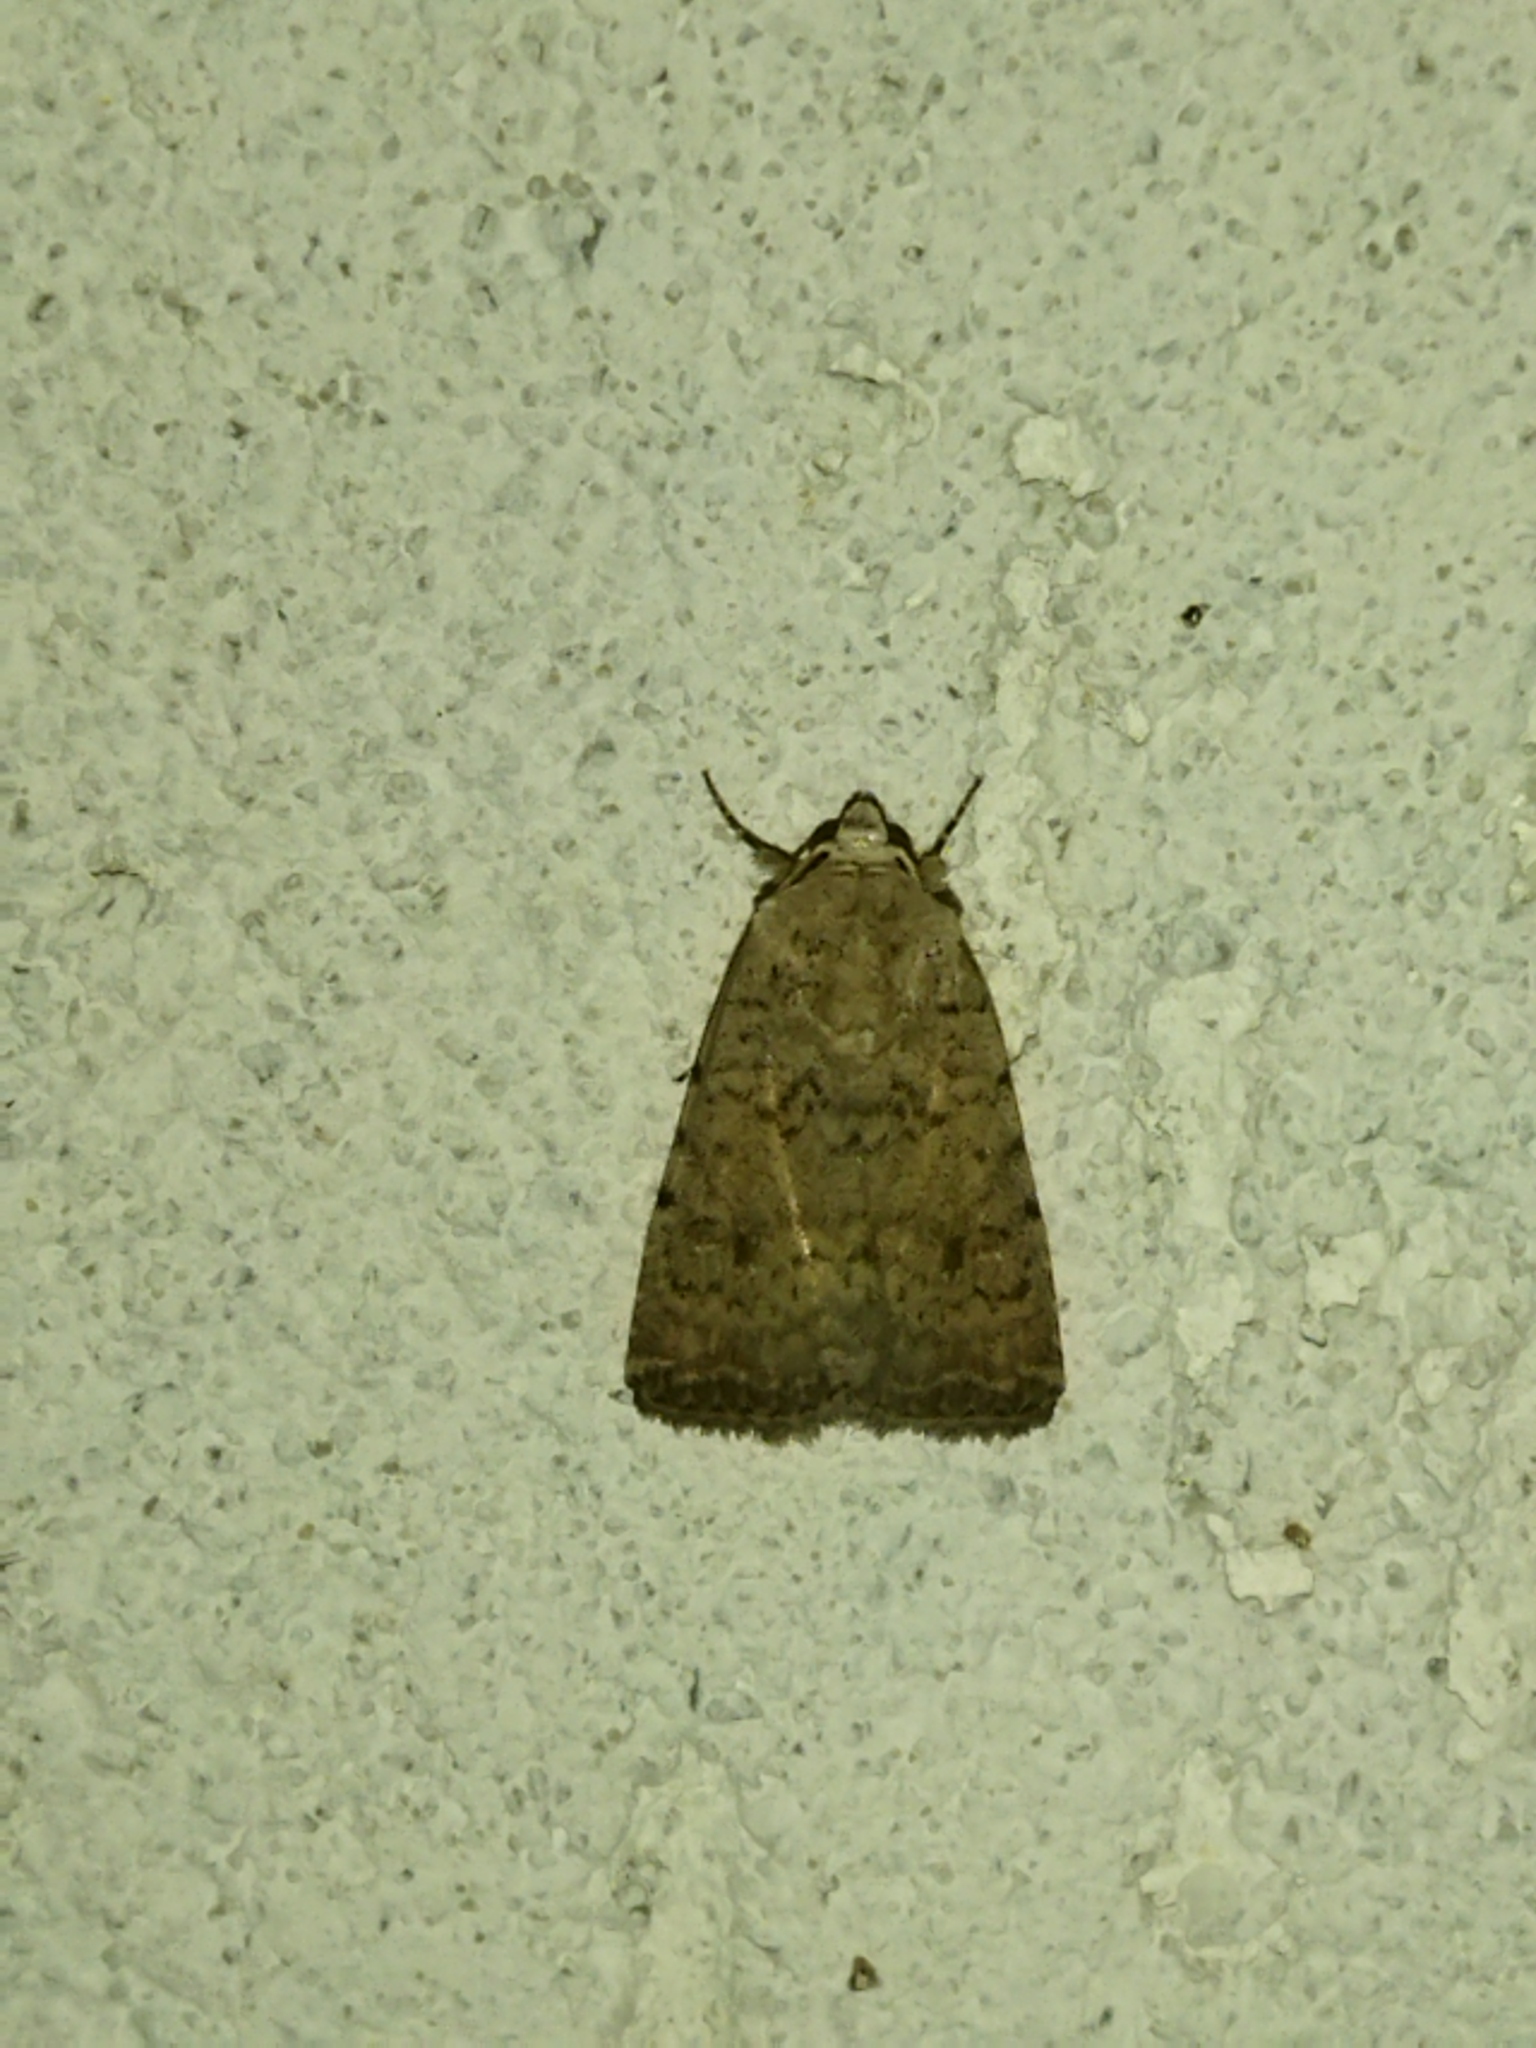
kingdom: Animalia
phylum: Arthropoda
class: Insecta
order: Lepidoptera
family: Noctuidae
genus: Caradrina
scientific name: Caradrina clavipalpis
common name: Pale mottled willow
